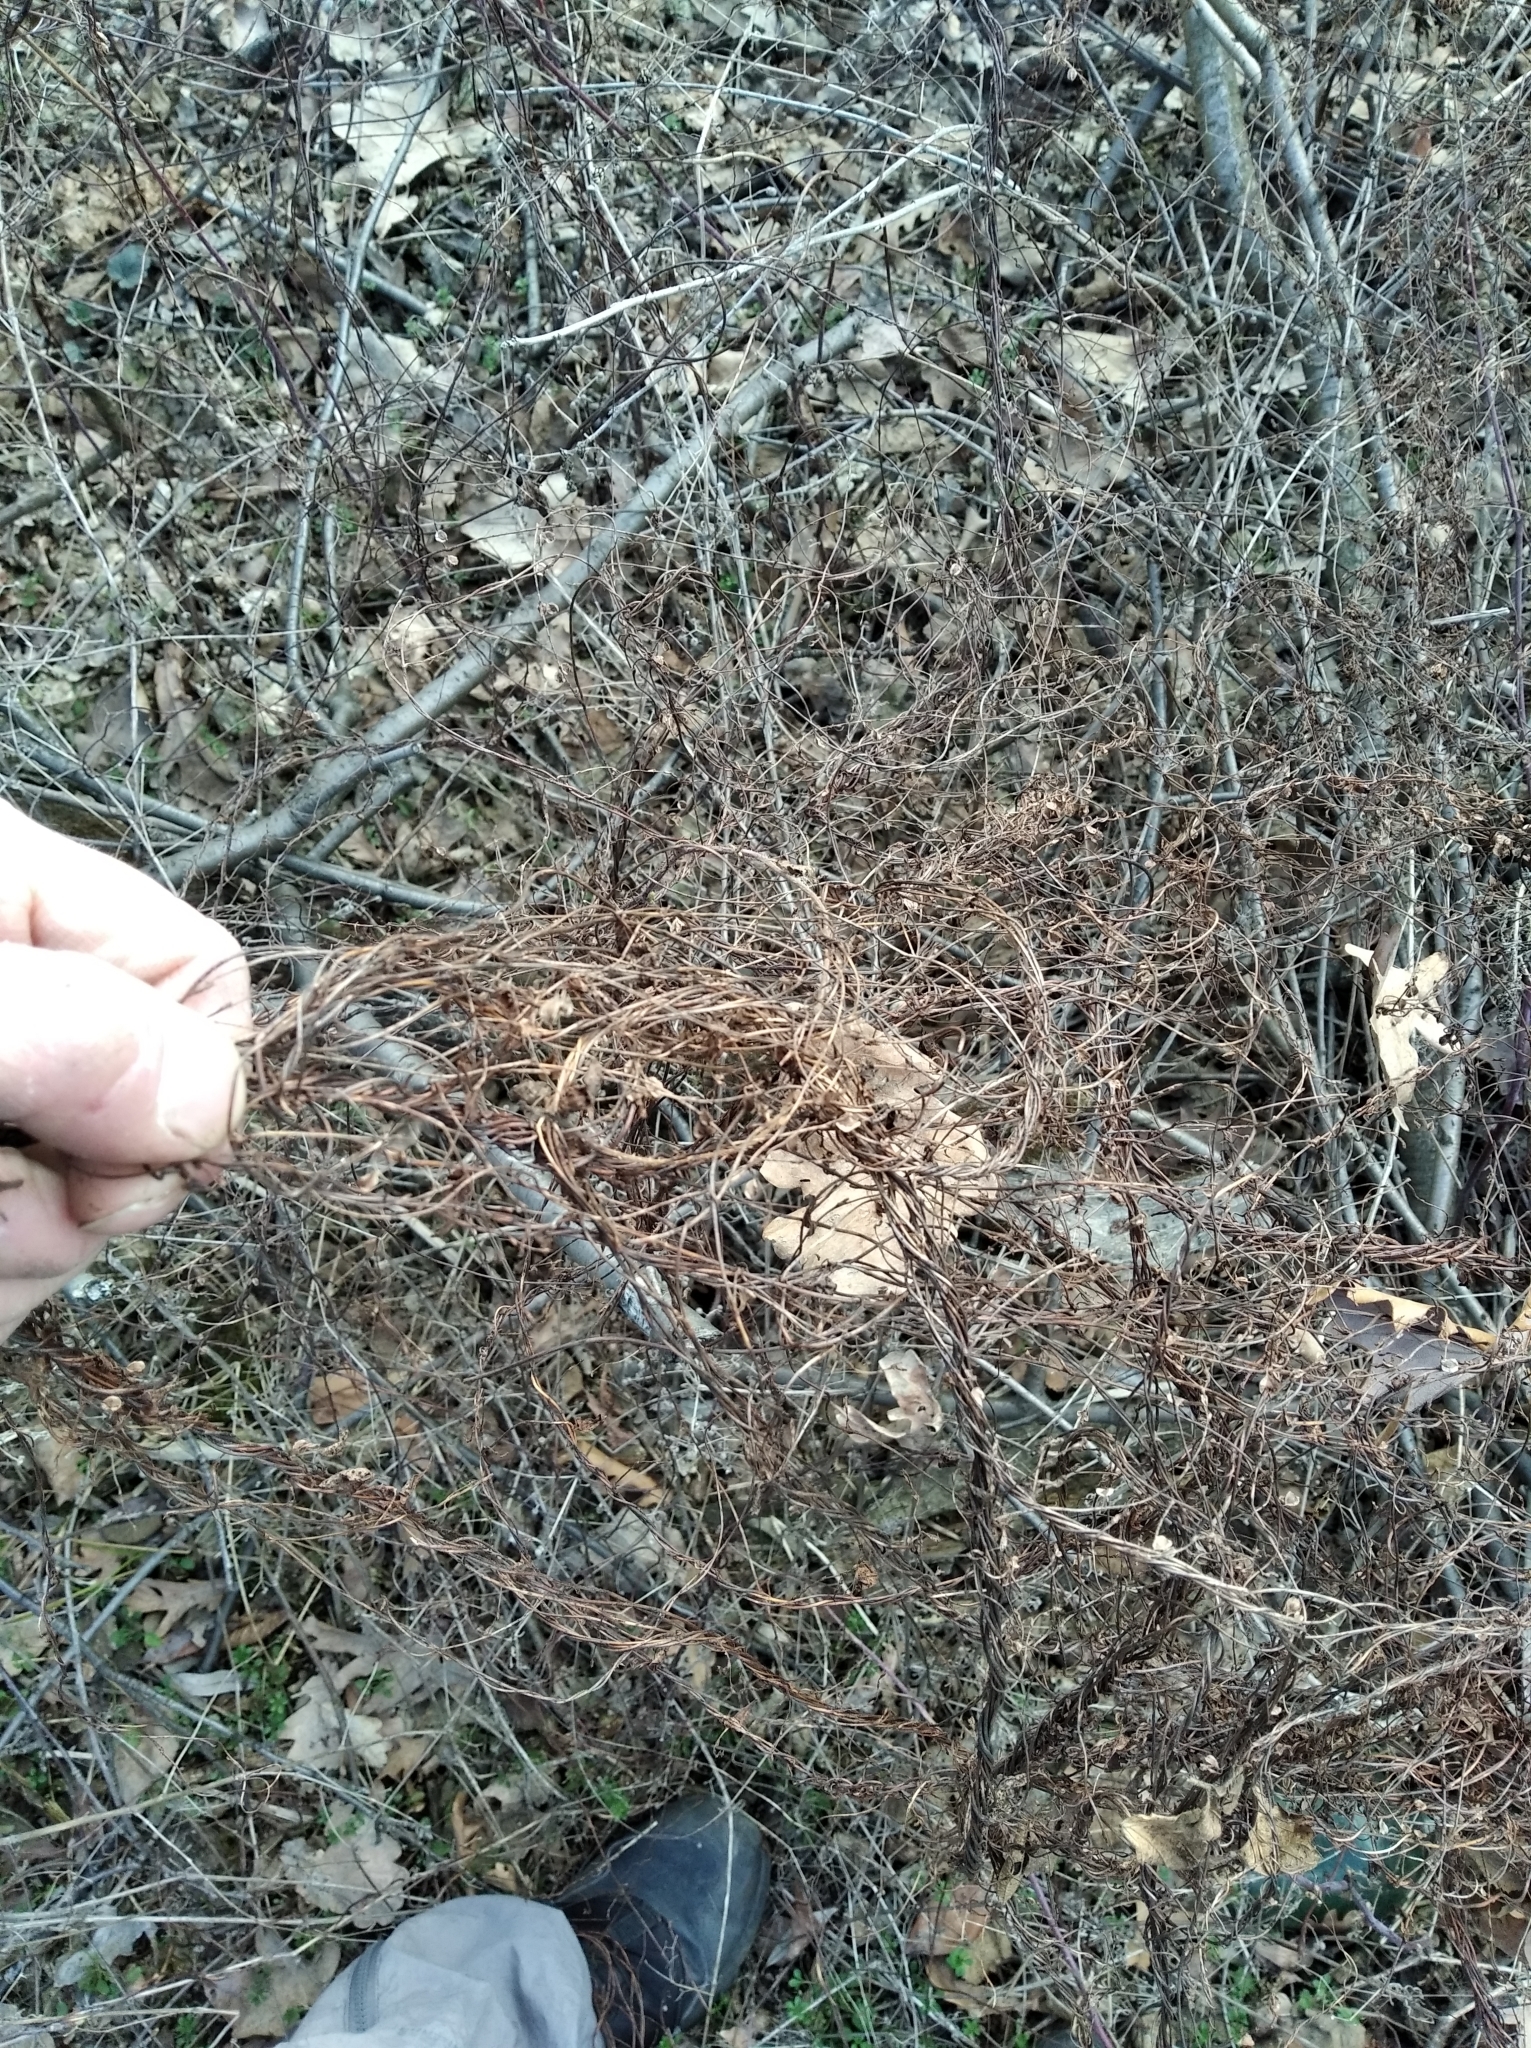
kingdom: Plantae
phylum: Tracheophyta
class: Magnoliopsida
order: Caryophyllales
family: Polygonaceae
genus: Fallopia
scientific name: Fallopia dumetorum
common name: Copse-bindweed
